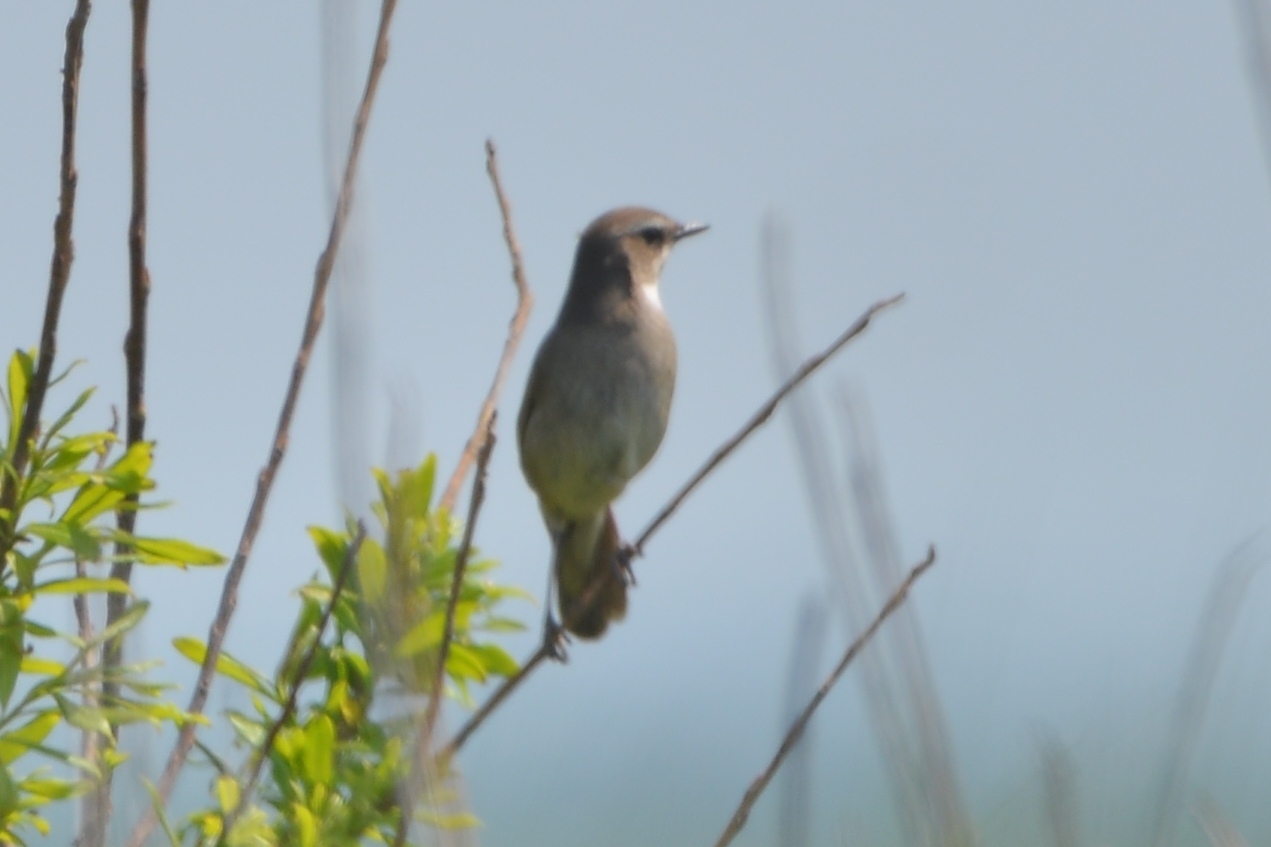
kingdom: Animalia
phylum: Chordata
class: Aves
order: Passeriformes
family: Locustellidae
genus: Locustella
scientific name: Locustella ochotensis
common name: Middendorff's grasshopper-warbler
